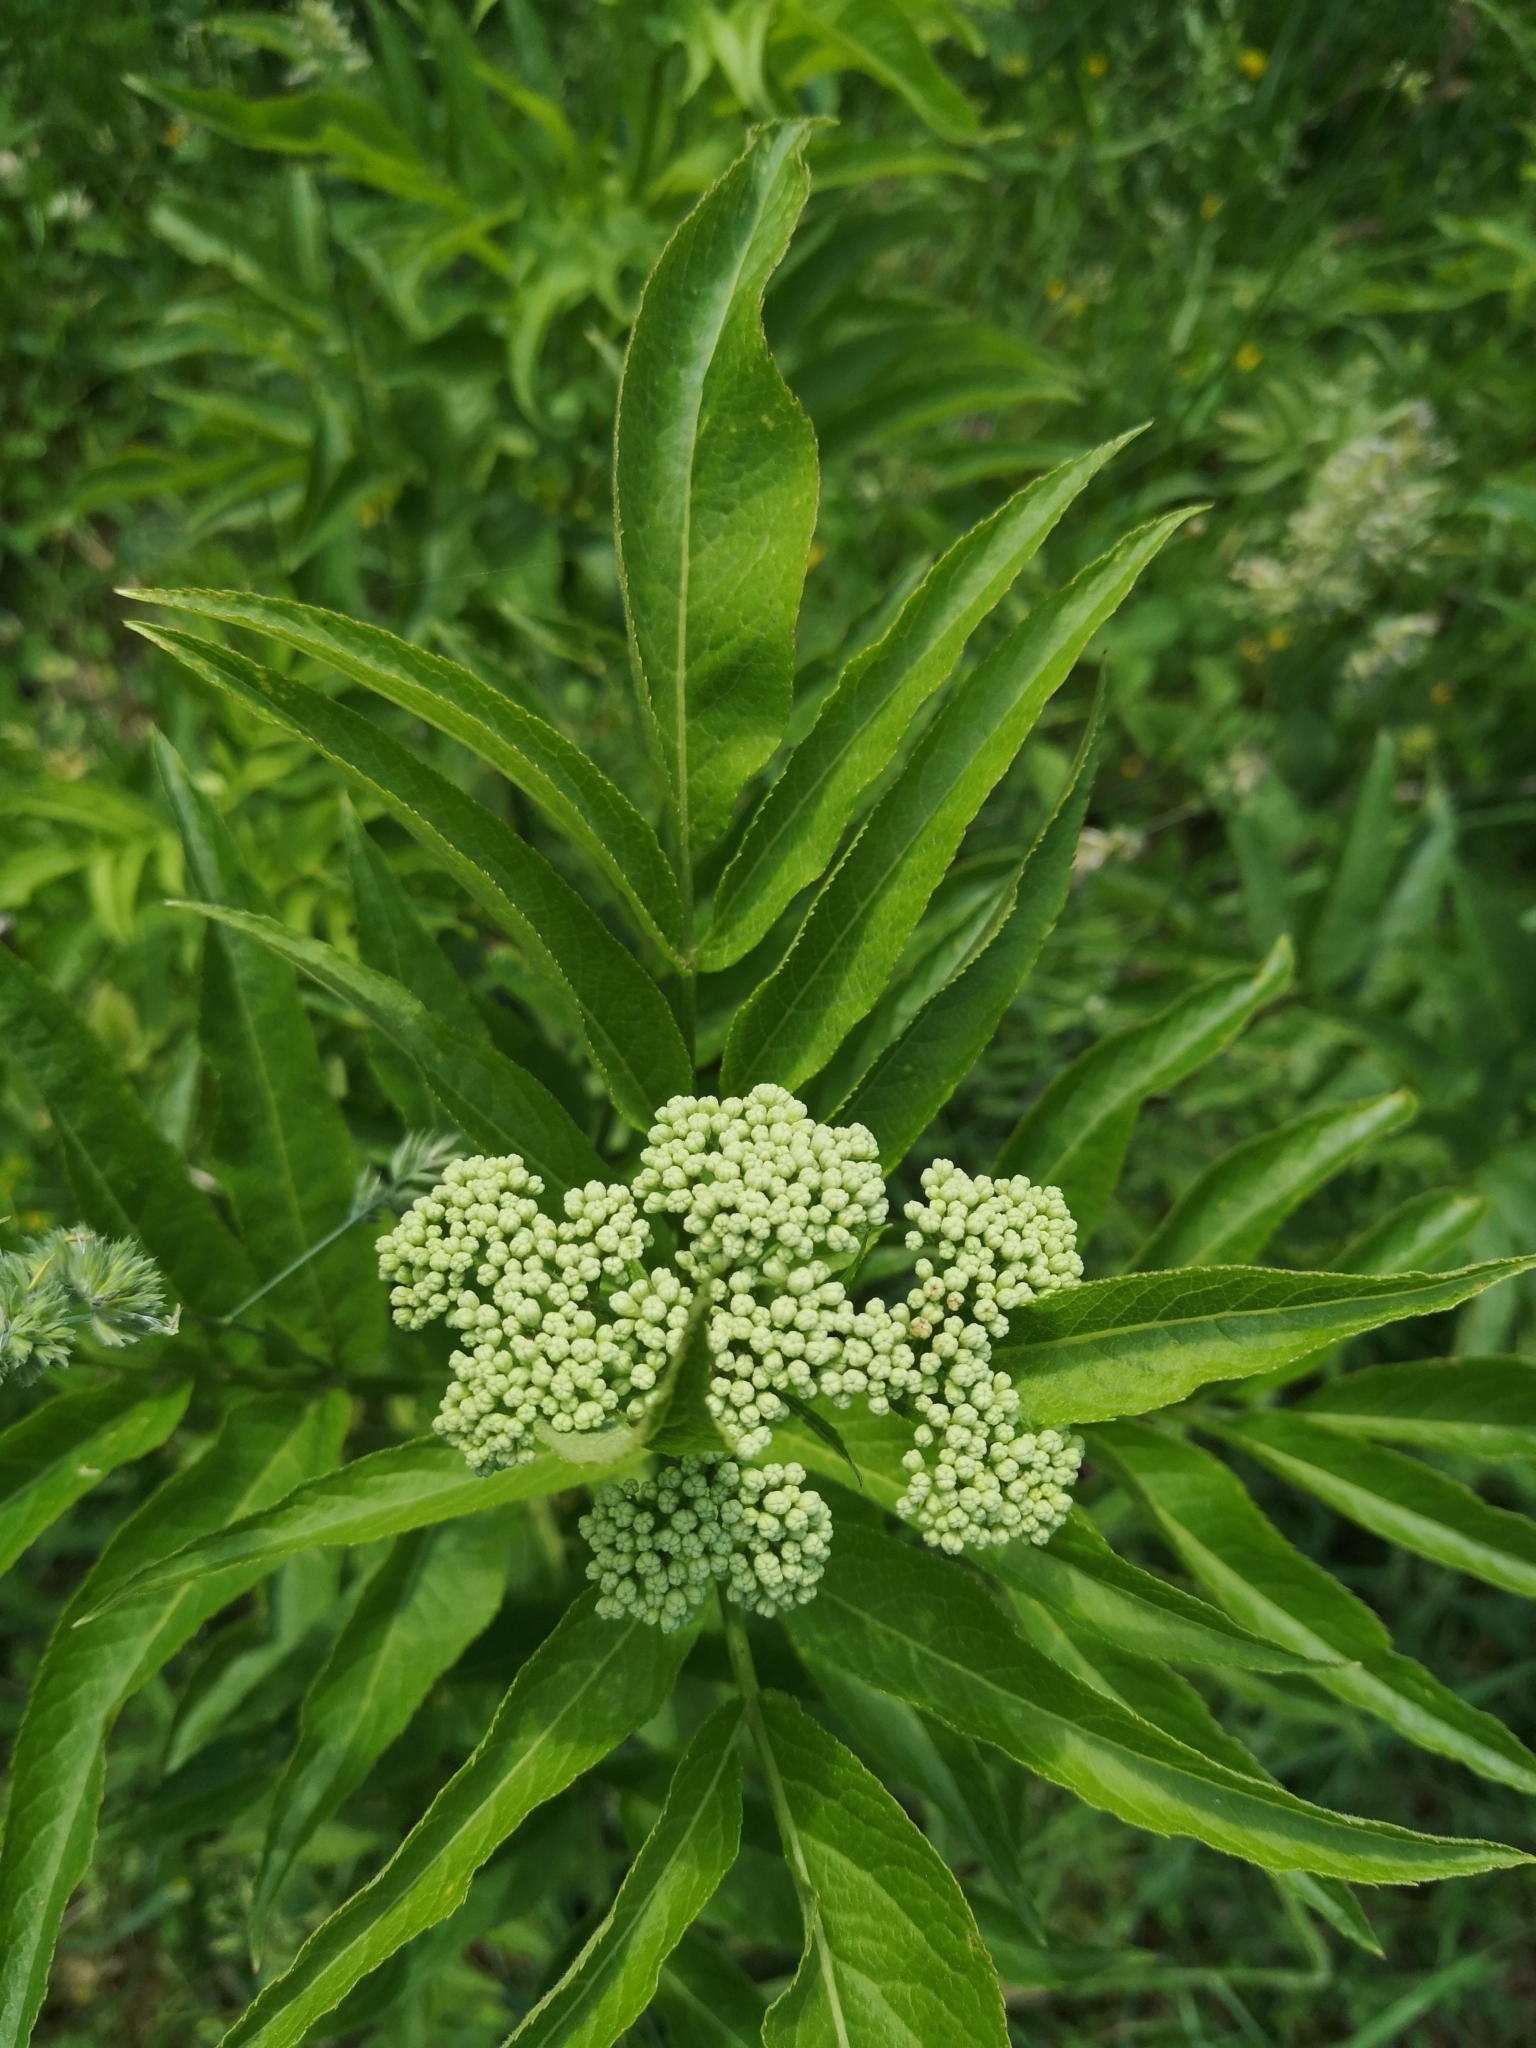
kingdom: Plantae
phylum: Tracheophyta
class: Magnoliopsida
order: Dipsacales
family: Viburnaceae
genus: Sambucus
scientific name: Sambucus ebulus
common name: Dwarf elder
